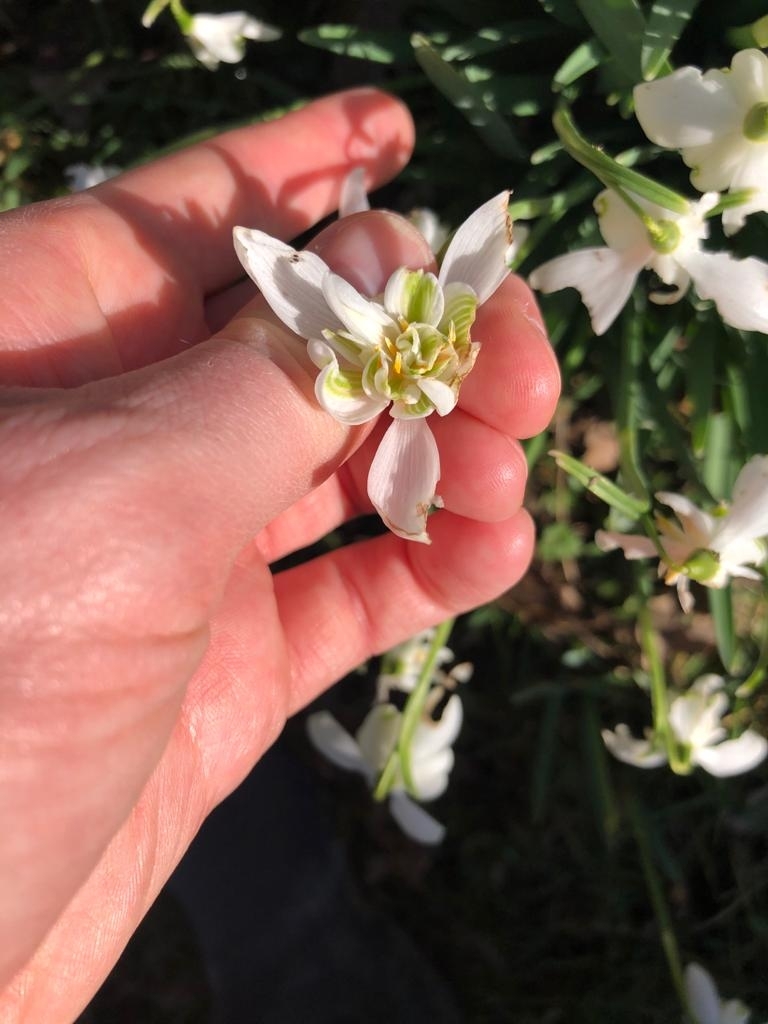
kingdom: Plantae
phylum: Tracheophyta
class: Liliopsida
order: Asparagales
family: Amaryllidaceae
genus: Galanthus
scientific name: Galanthus nivalis
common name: Snowdrop
